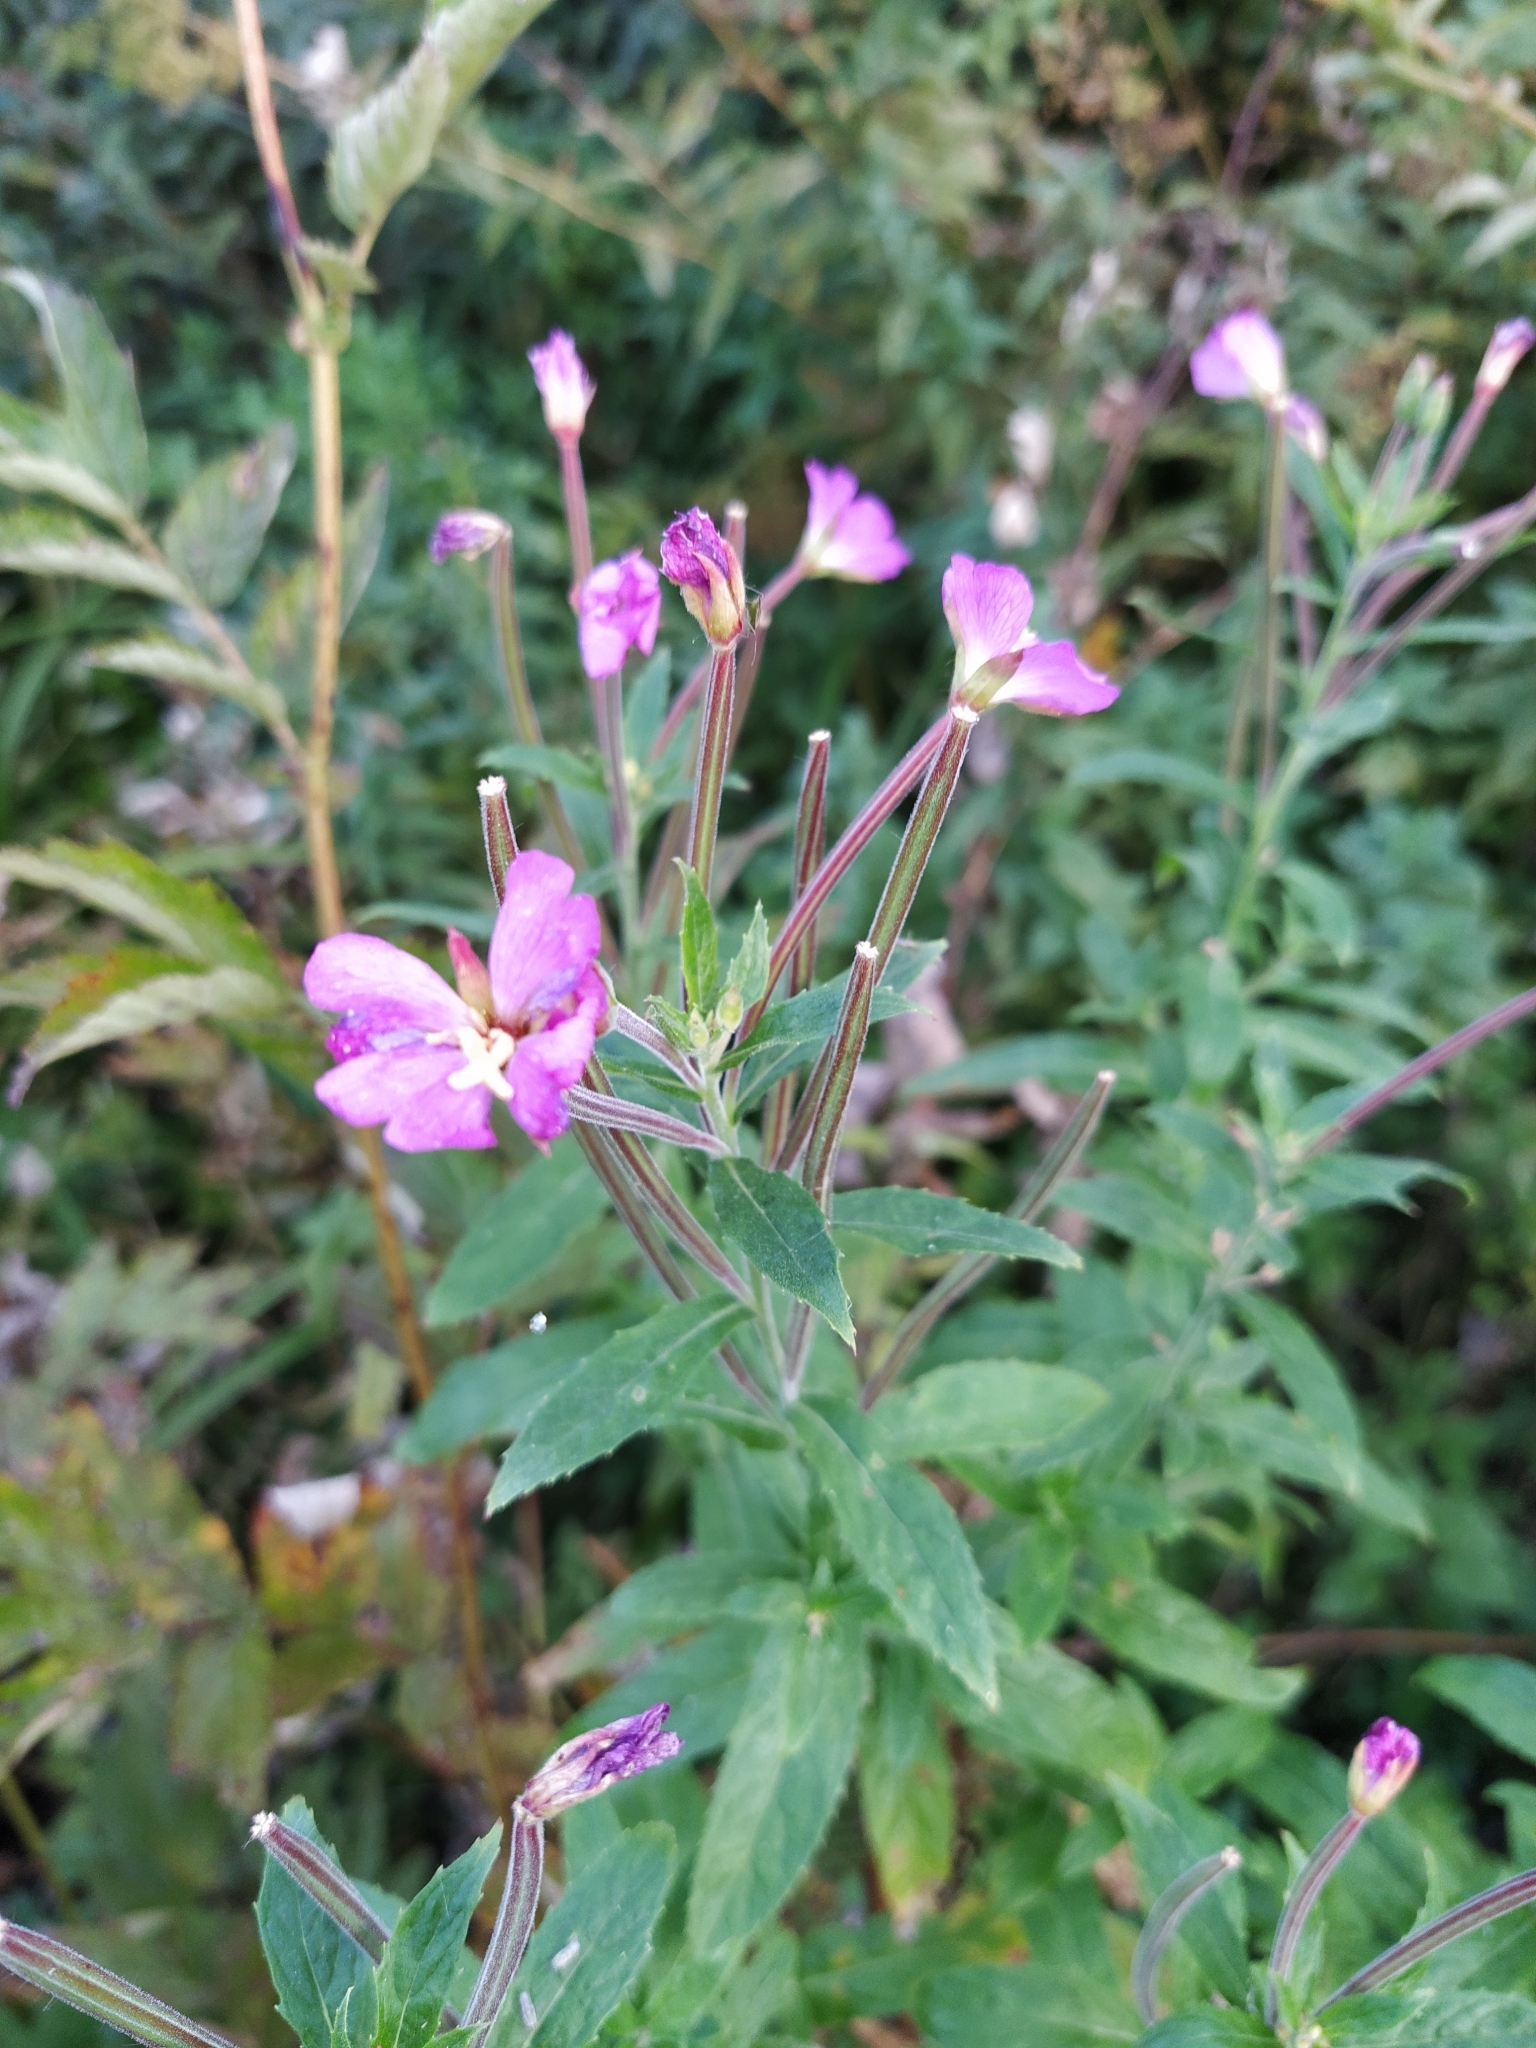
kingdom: Plantae
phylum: Tracheophyta
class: Magnoliopsida
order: Myrtales
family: Onagraceae
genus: Epilobium
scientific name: Epilobium hirsutum
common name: Great willowherb
